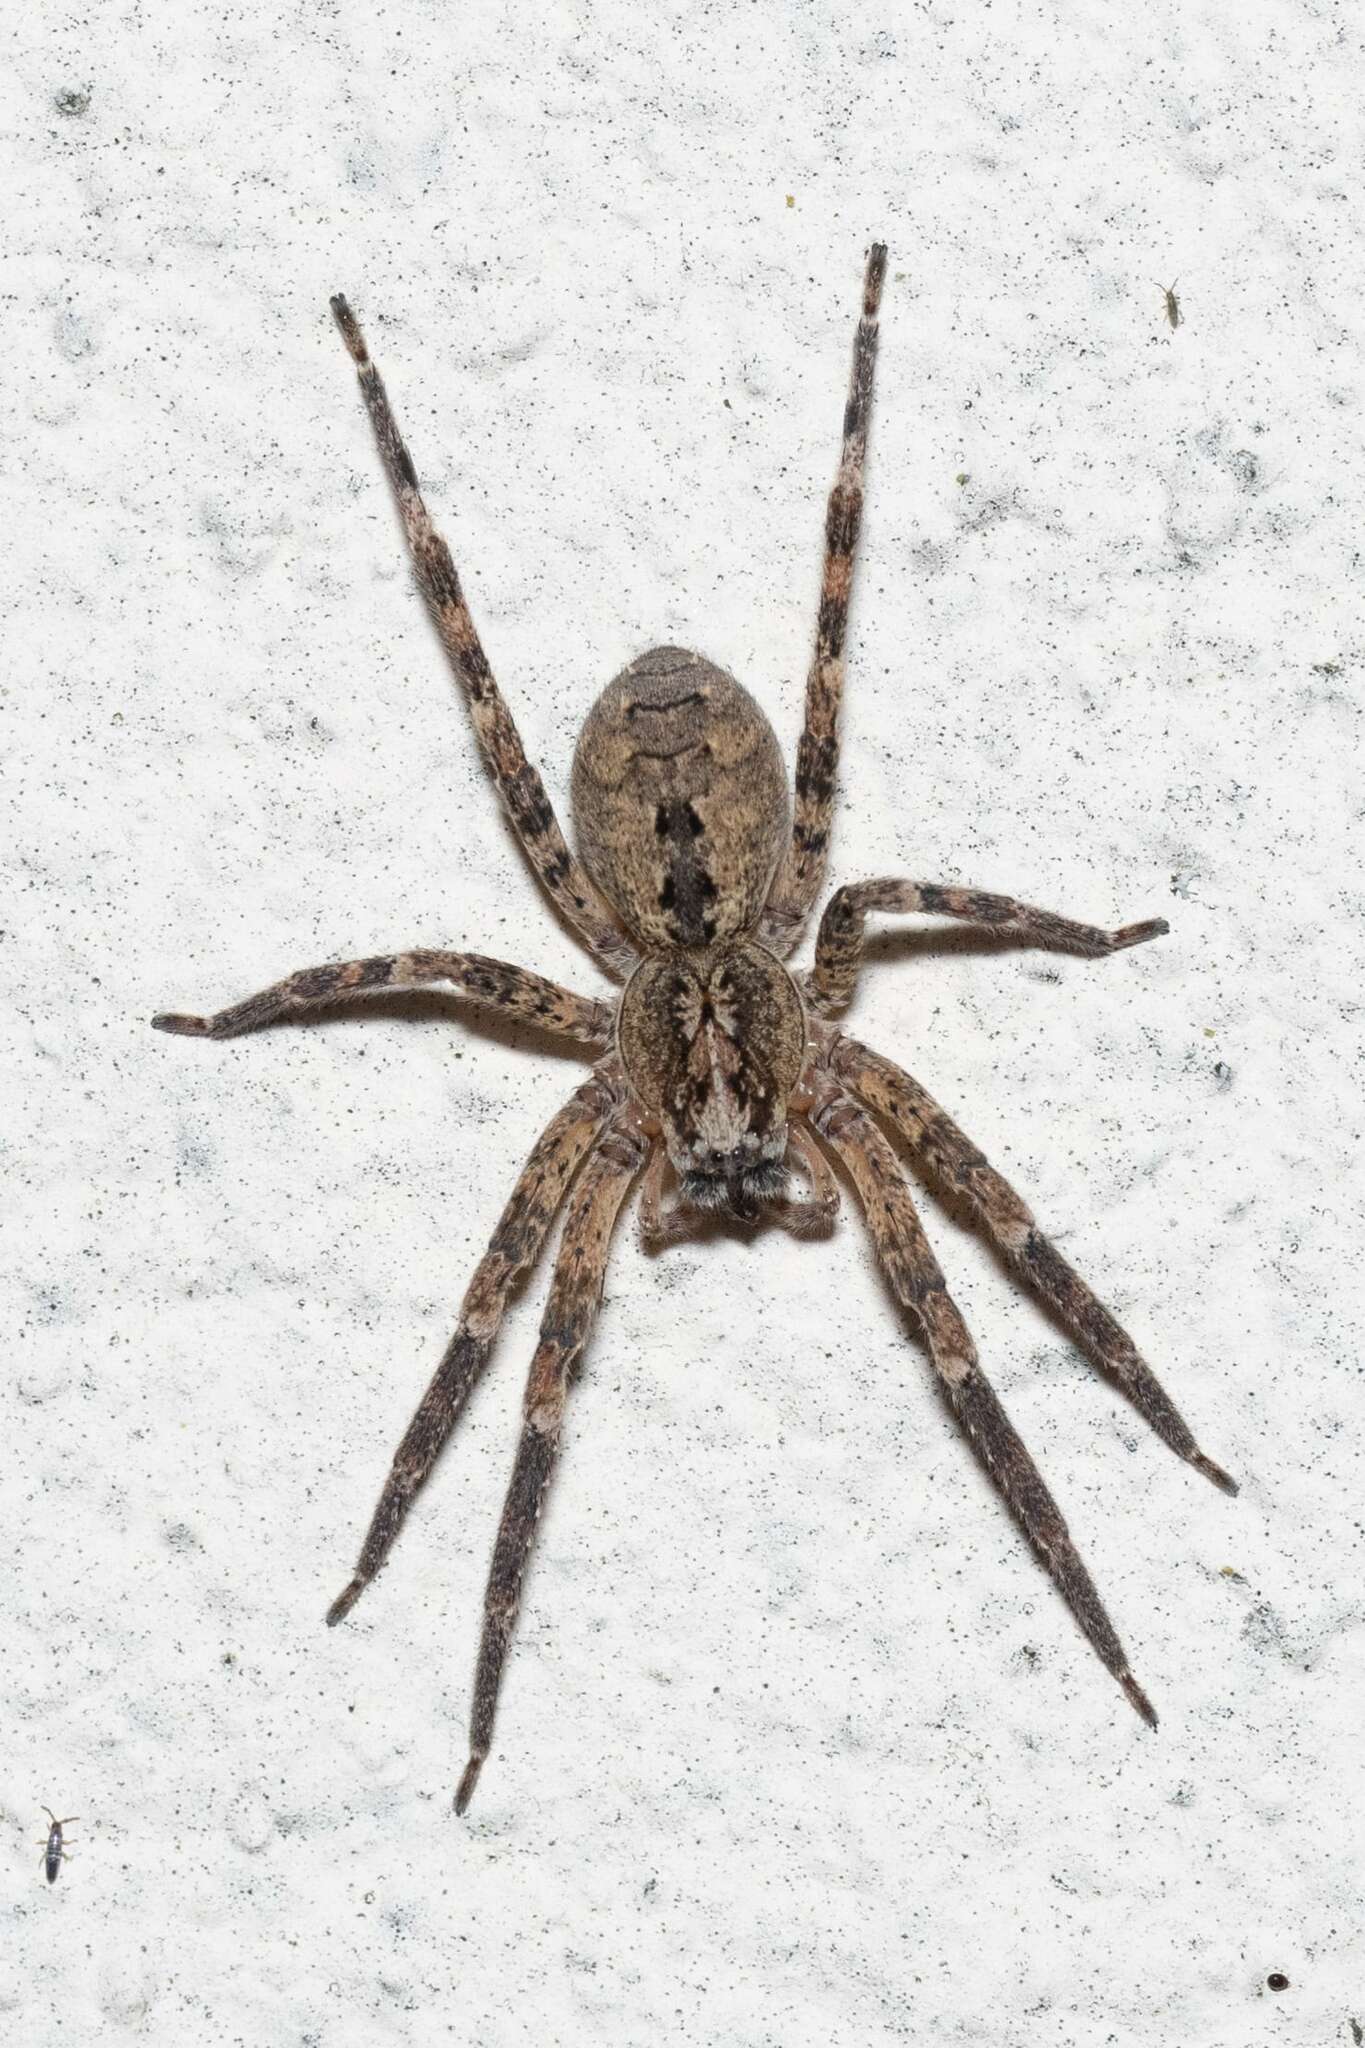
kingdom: Animalia
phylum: Arthropoda
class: Arachnida
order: Araneae
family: Zoropsidae
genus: Zoropsis
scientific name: Zoropsis spinimana
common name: Zoropsid spider
